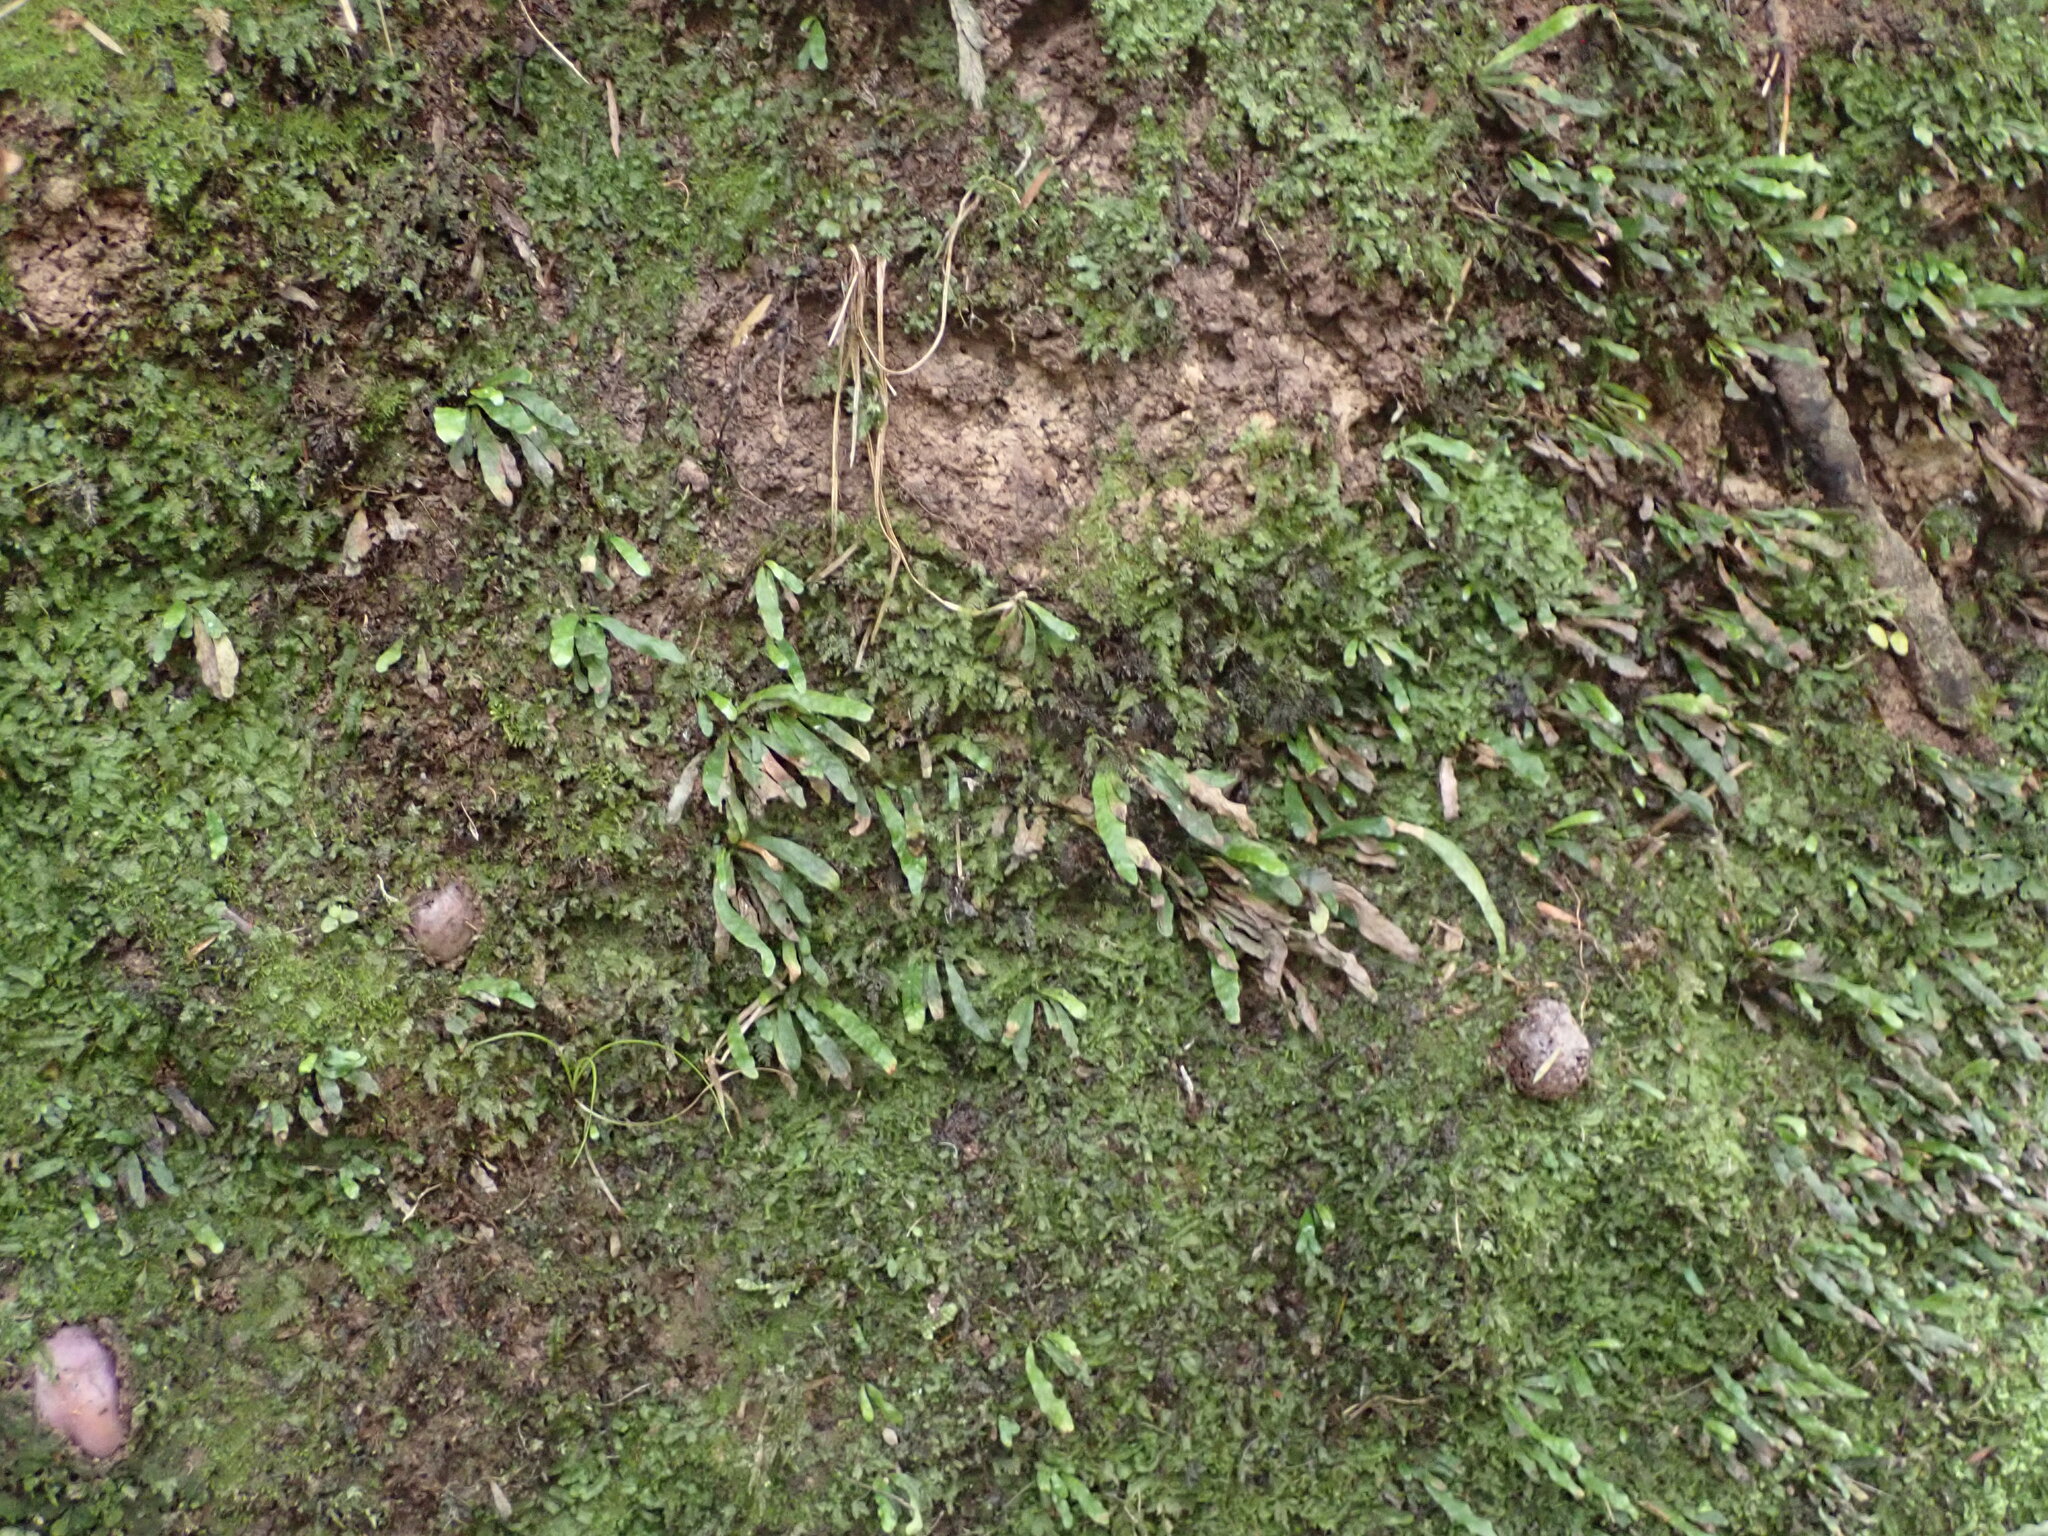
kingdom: Plantae
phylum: Tracheophyta
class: Polypodiopsida
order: Polypodiales
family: Polypodiaceae
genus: Notogrammitis
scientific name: Notogrammitis ciliata
